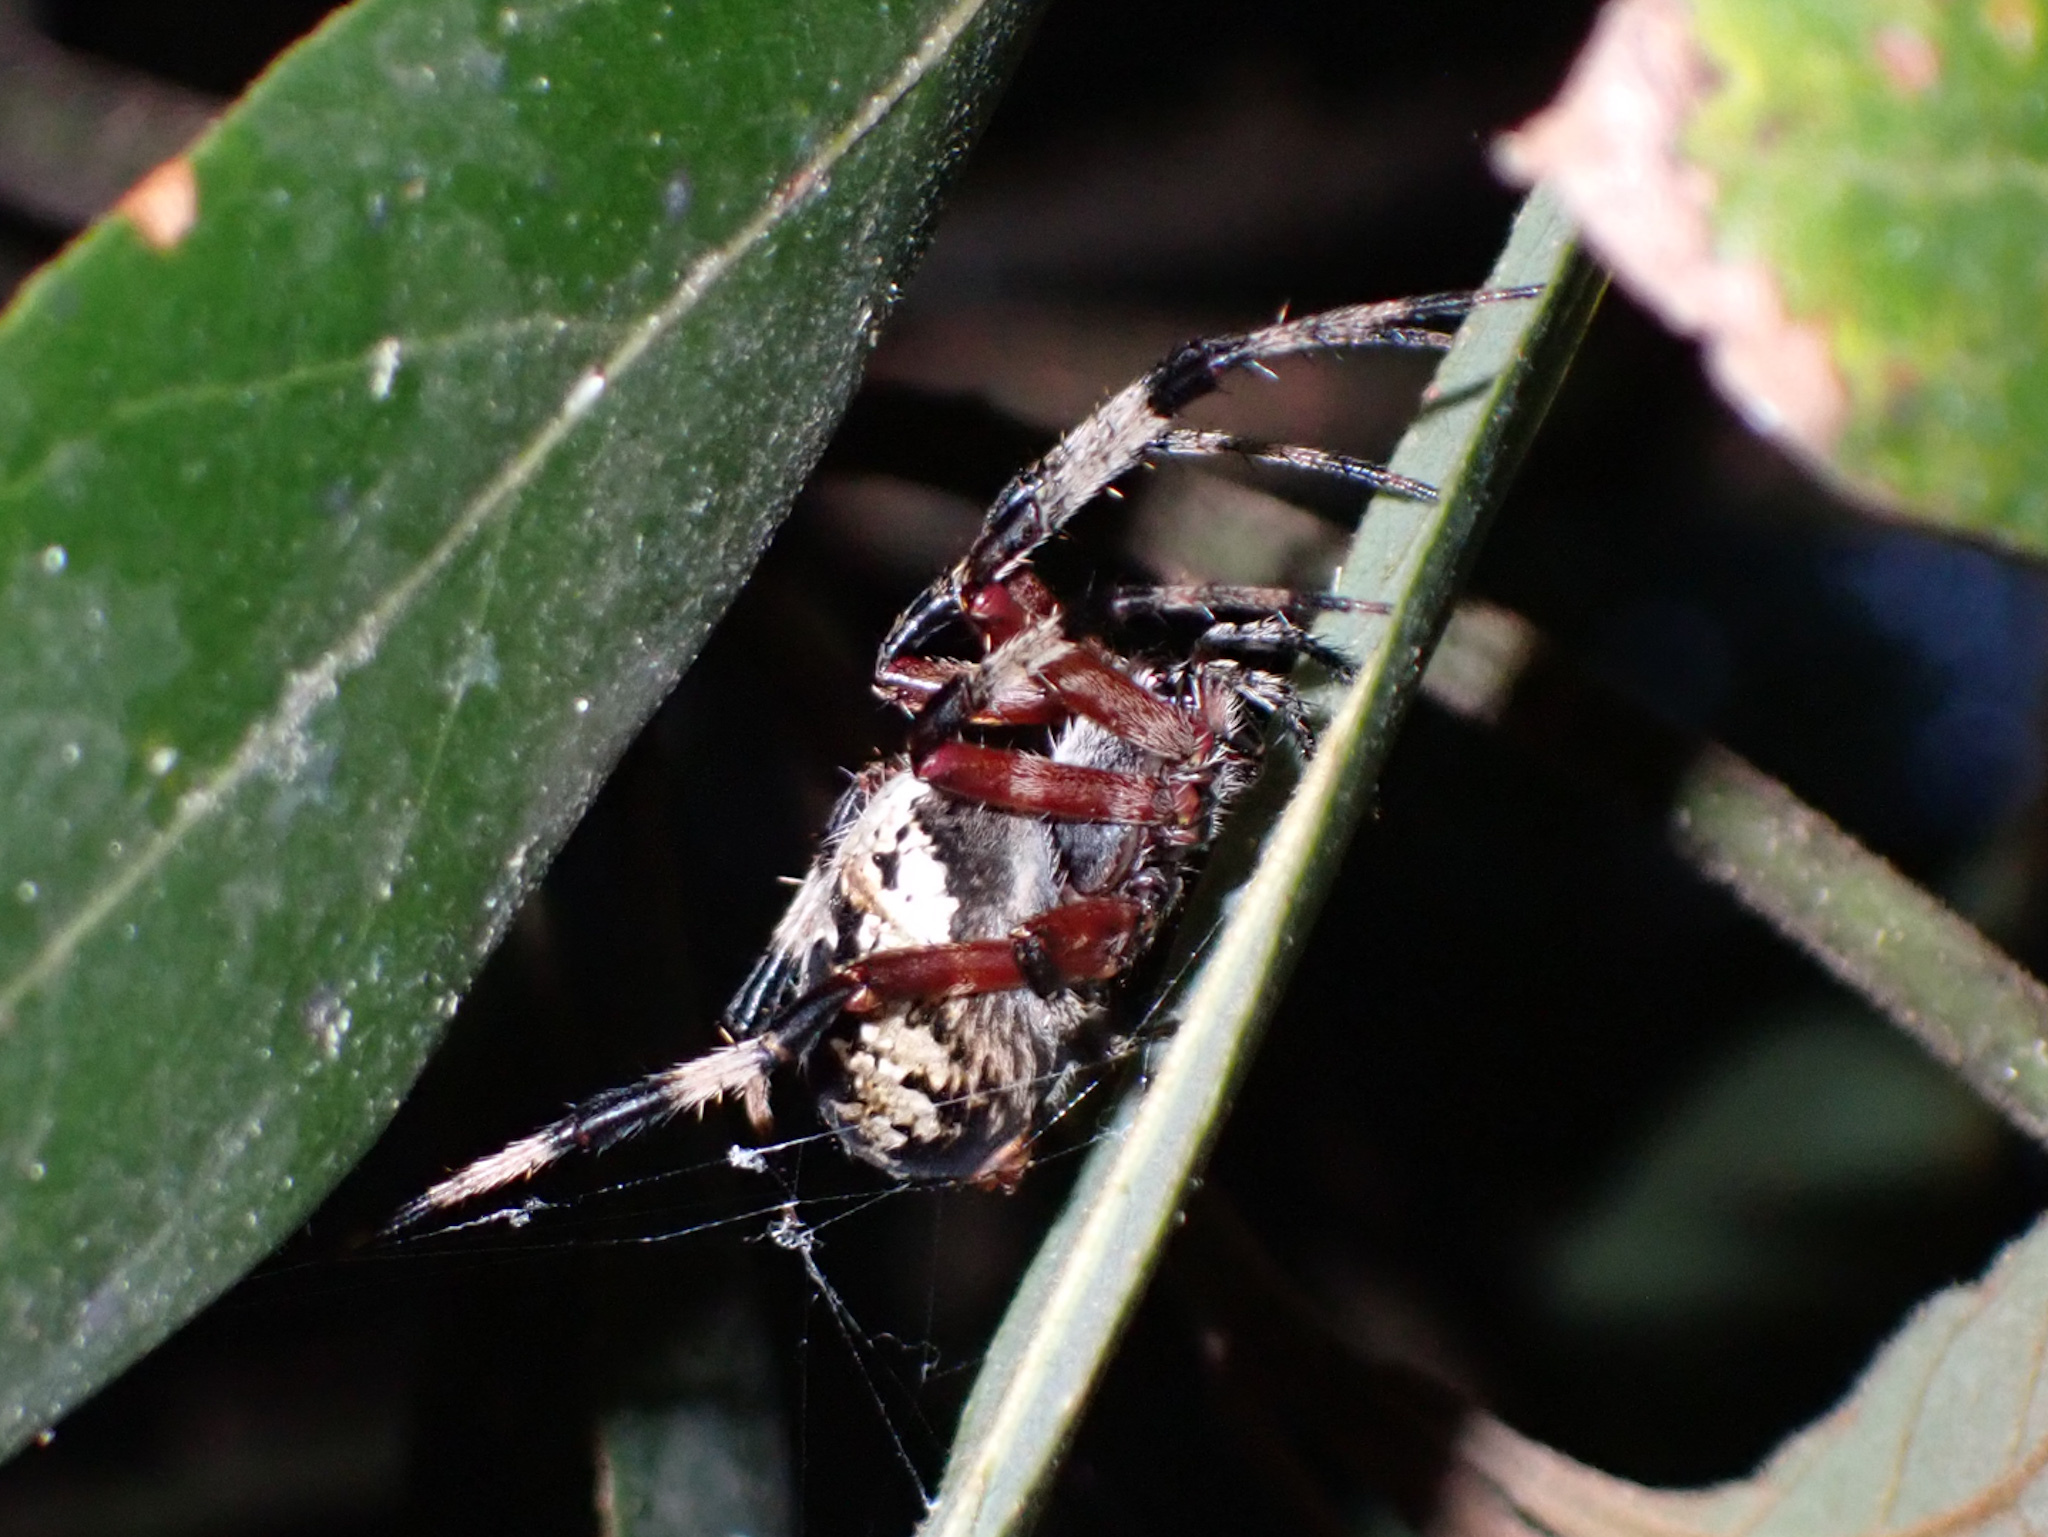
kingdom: Animalia
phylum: Arthropoda
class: Arachnida
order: Araneae
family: Araneidae
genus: Neoscona
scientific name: Neoscona domiciliorum
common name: Red-femured spotted orbweaver
